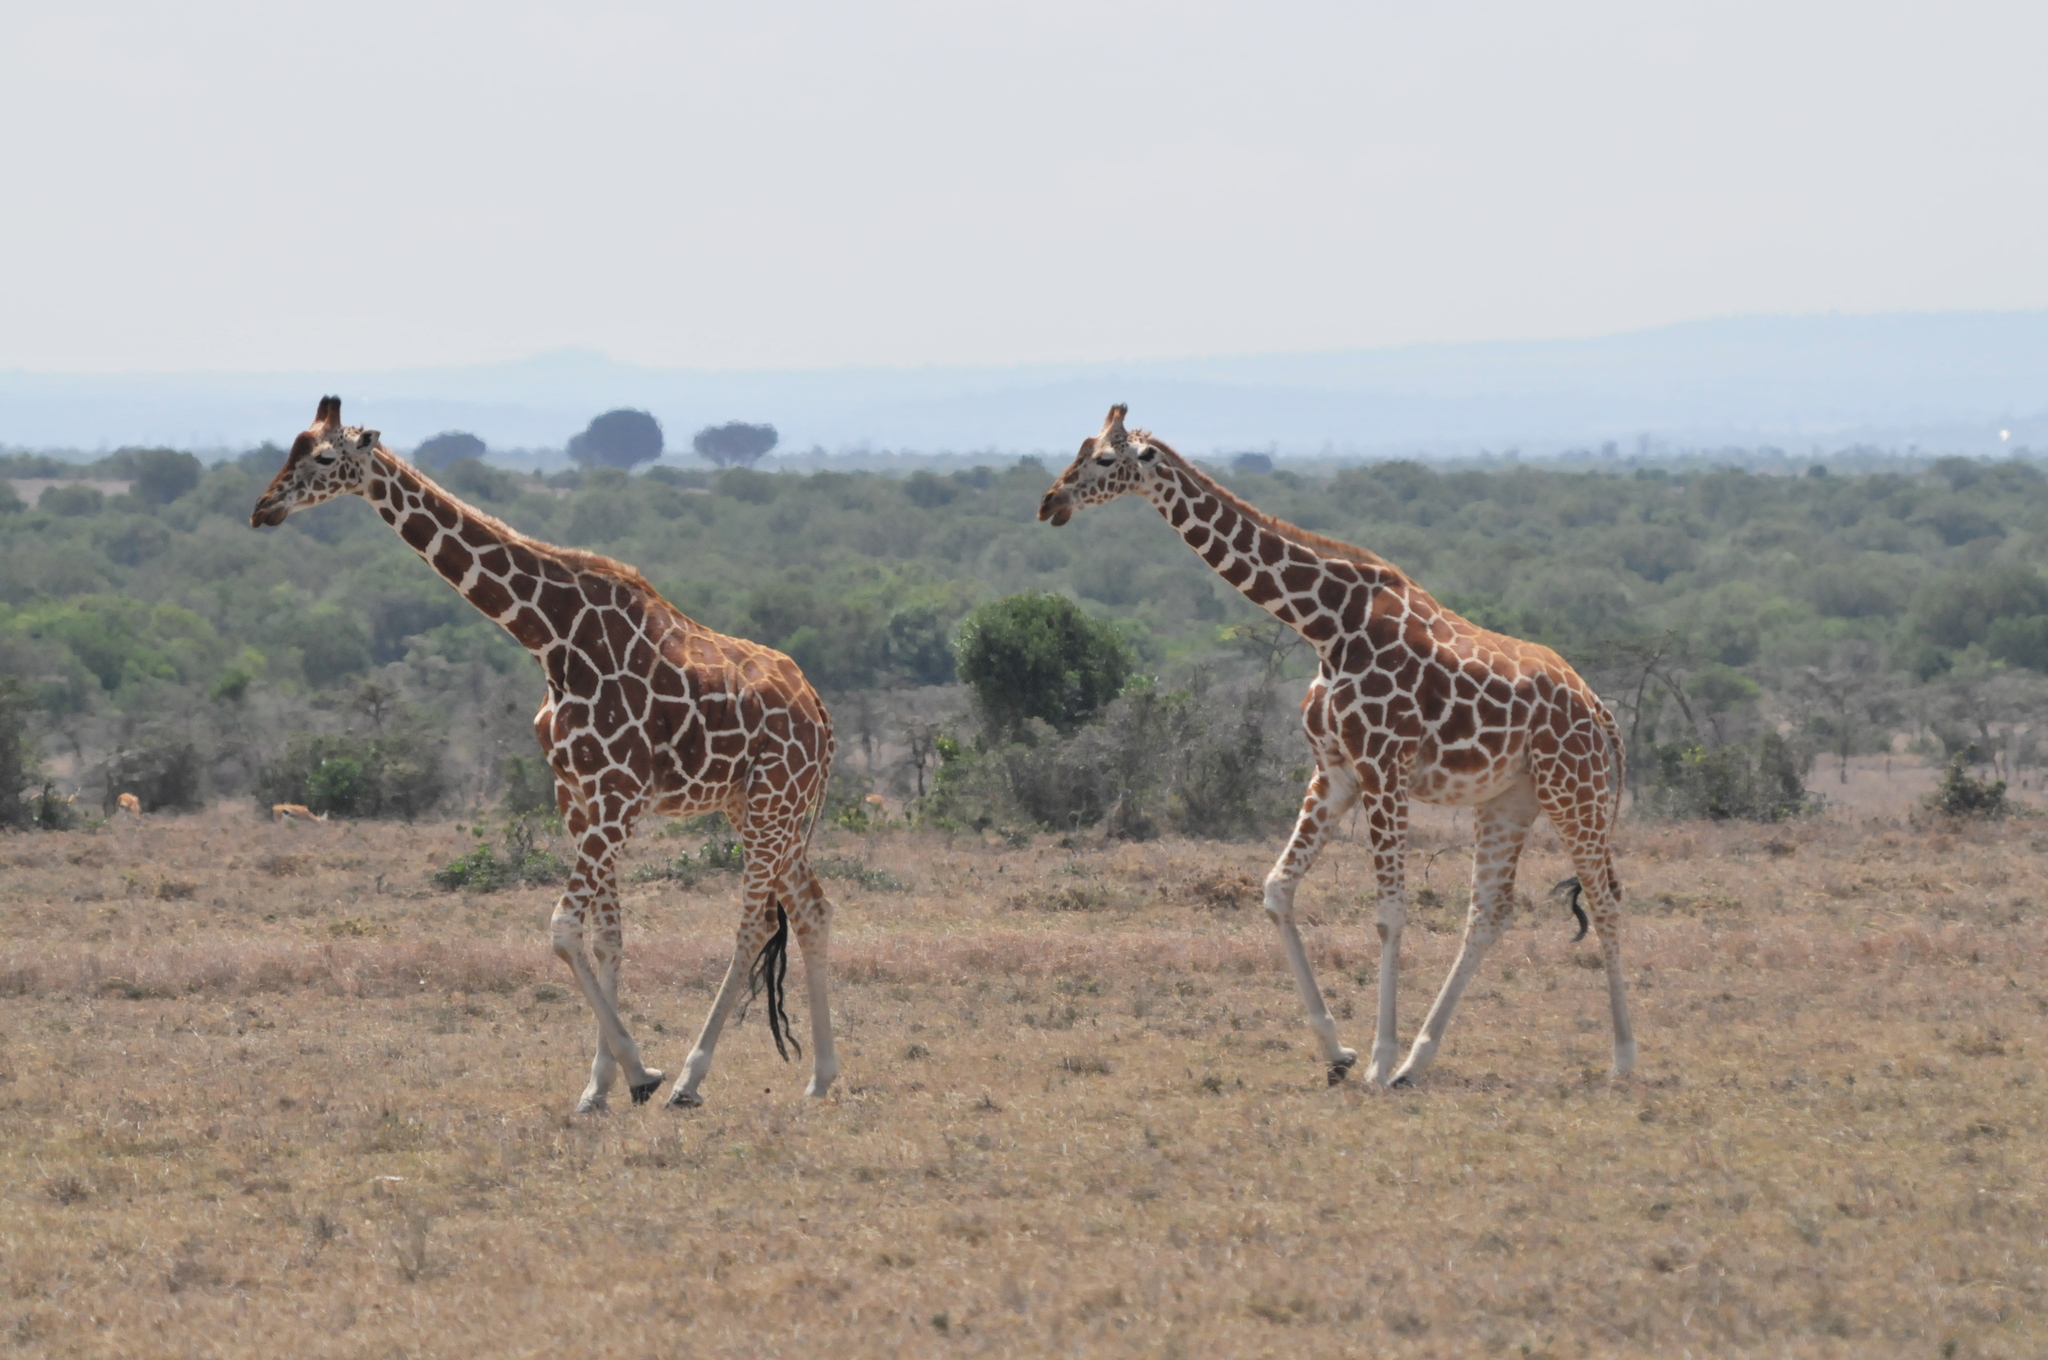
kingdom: Animalia
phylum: Chordata
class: Mammalia
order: Artiodactyla
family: Giraffidae
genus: Giraffa
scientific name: Giraffa reticulata
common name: Reticulated giraffe
